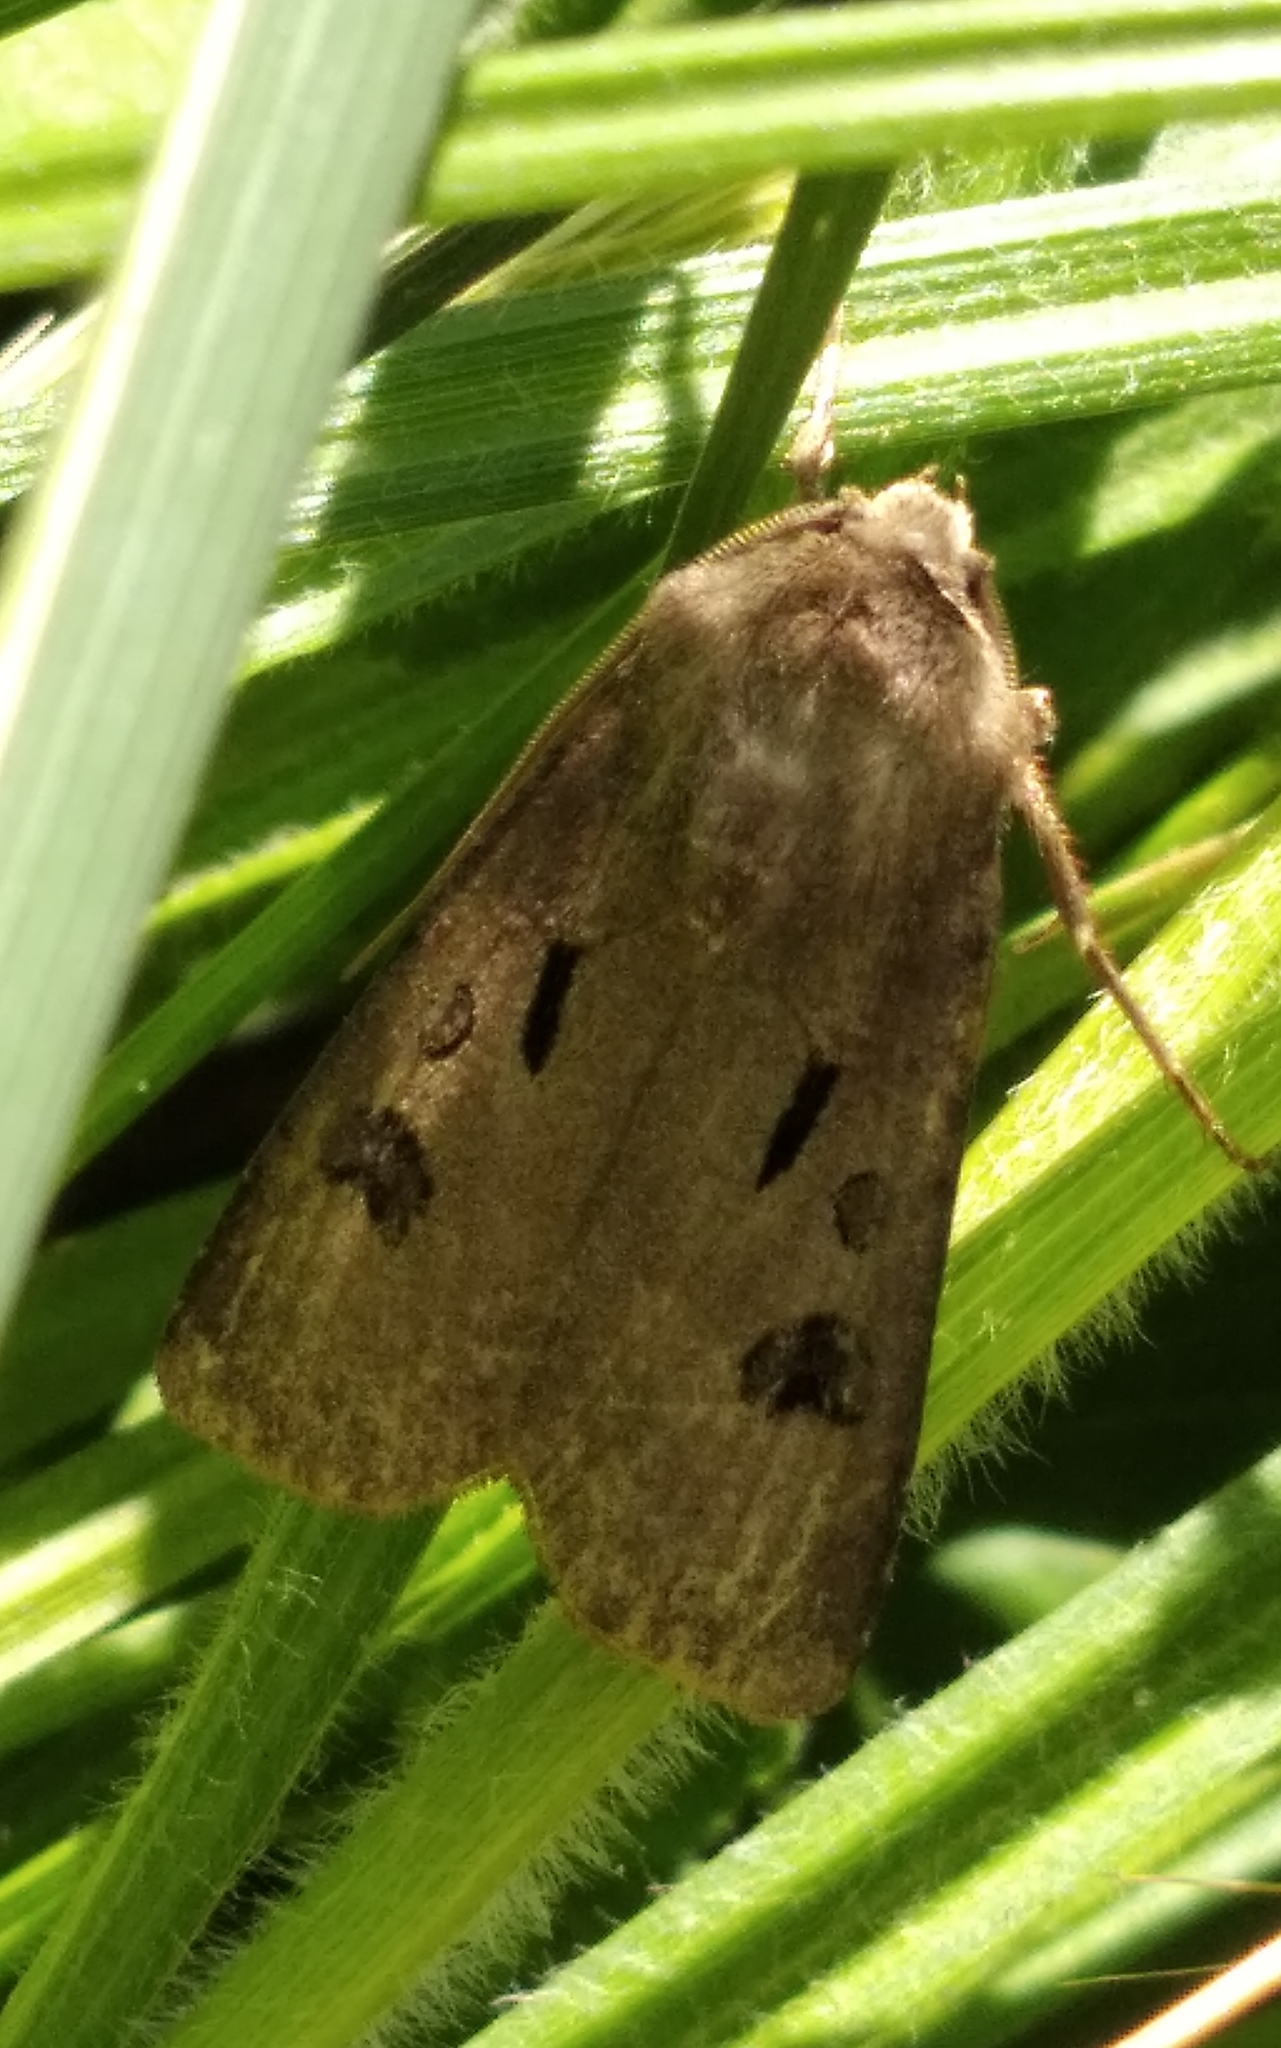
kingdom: Animalia
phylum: Arthropoda
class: Insecta
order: Lepidoptera
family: Noctuidae
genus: Agrotis
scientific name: Agrotis exclamationis
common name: Heart and dart
